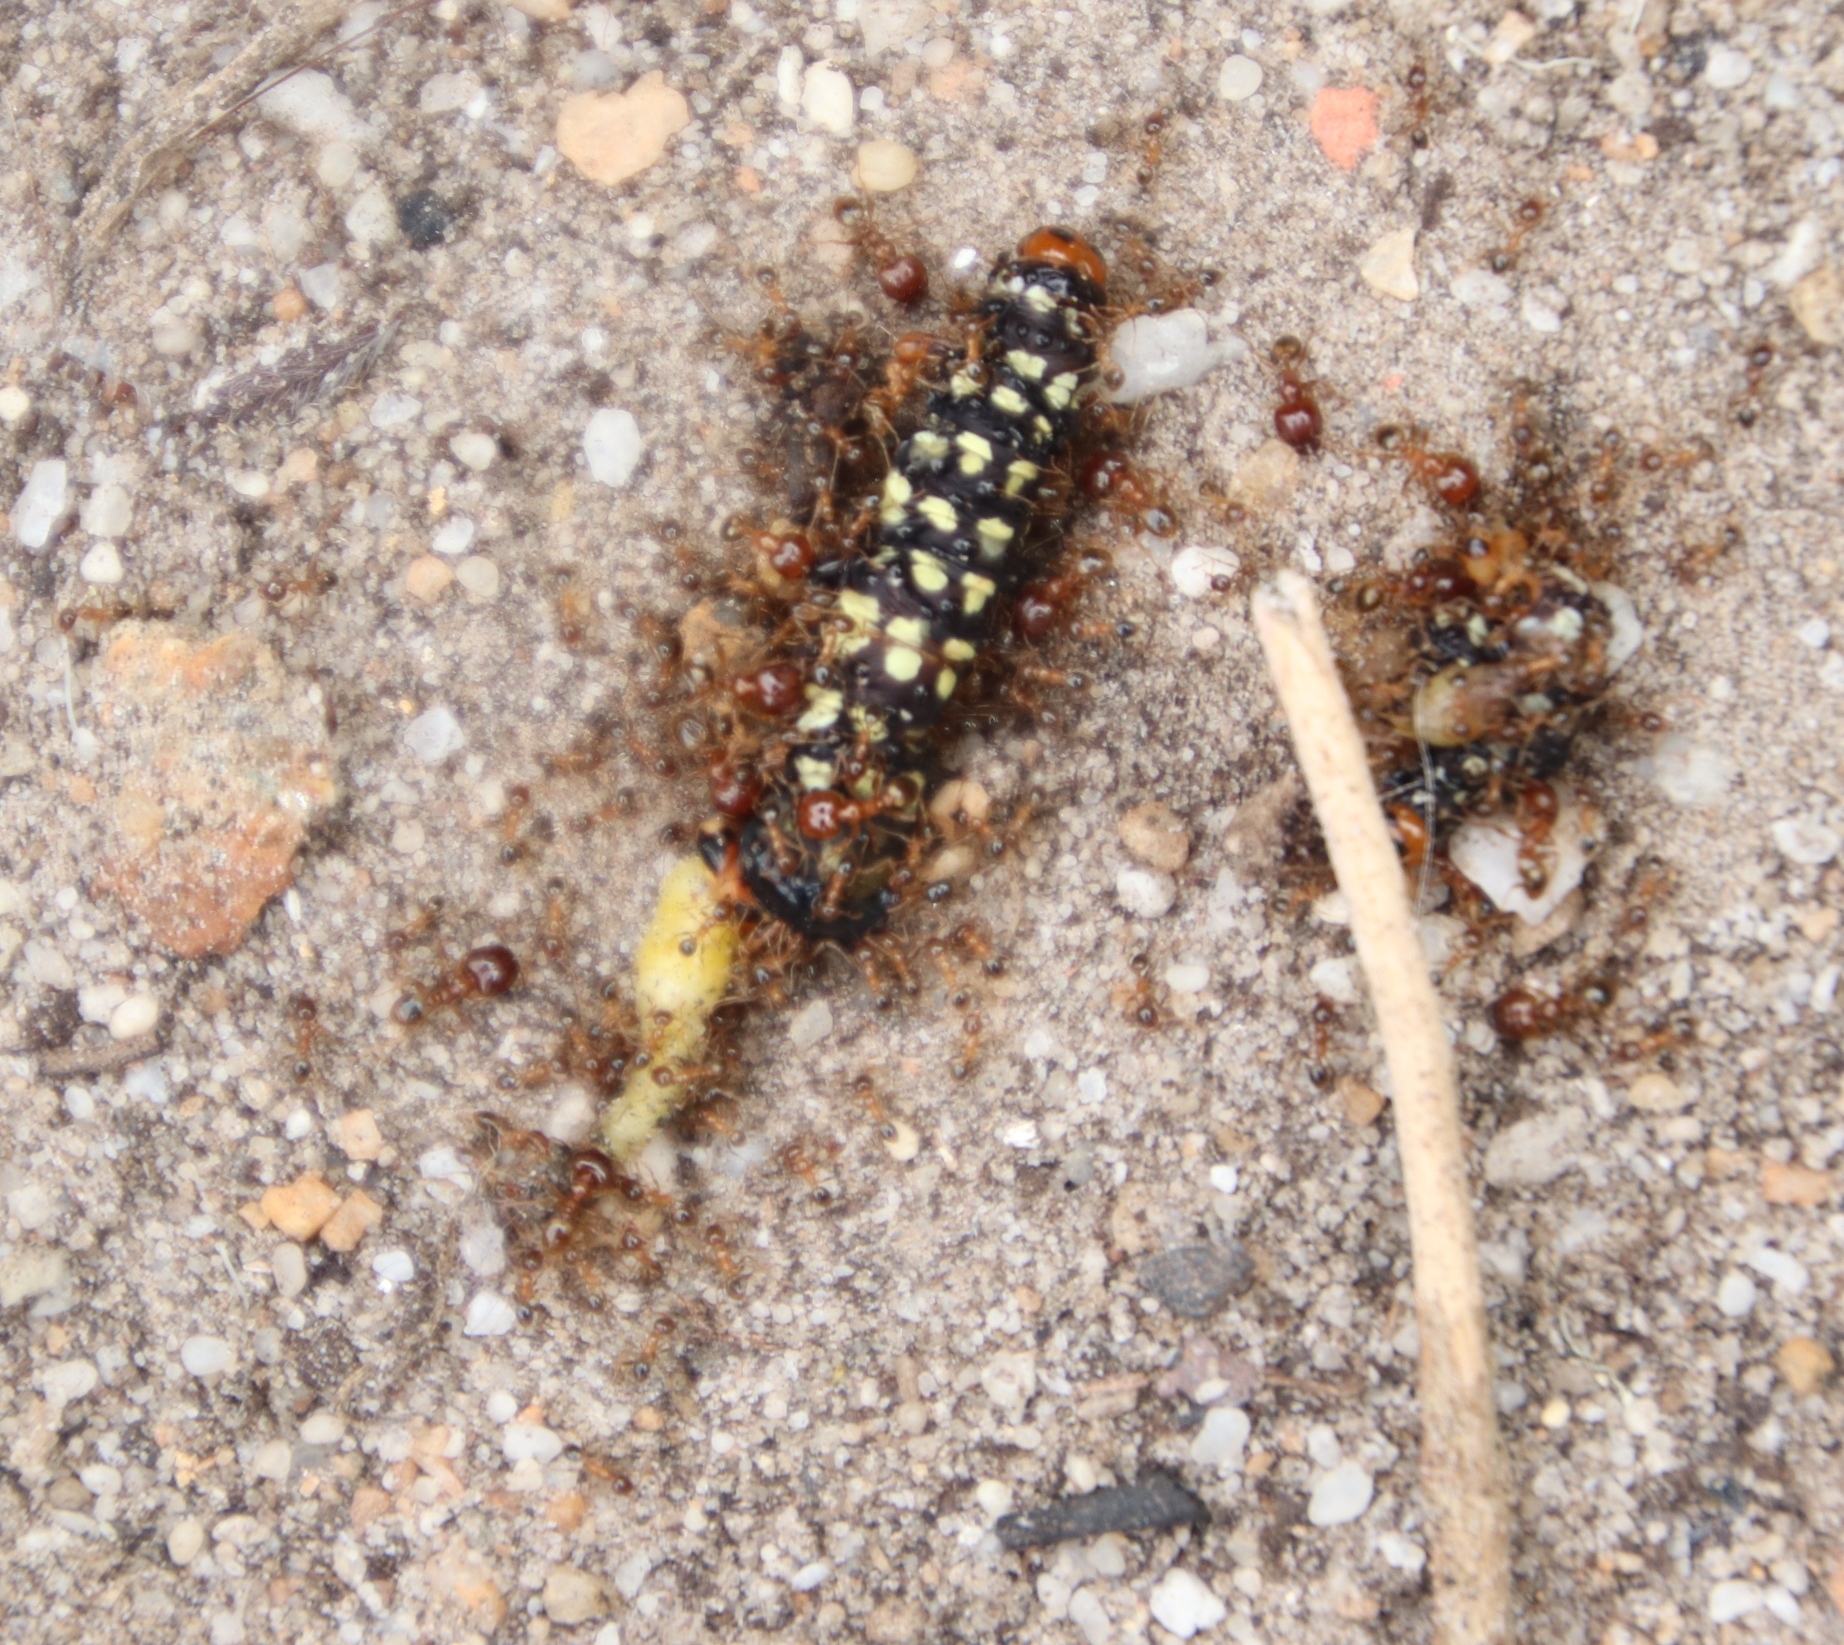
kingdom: Animalia
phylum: Arthropoda
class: Insecta
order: Hymenoptera
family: Formicidae
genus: Pheidole
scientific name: Pheidole megacephala
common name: Bigheaded ant
